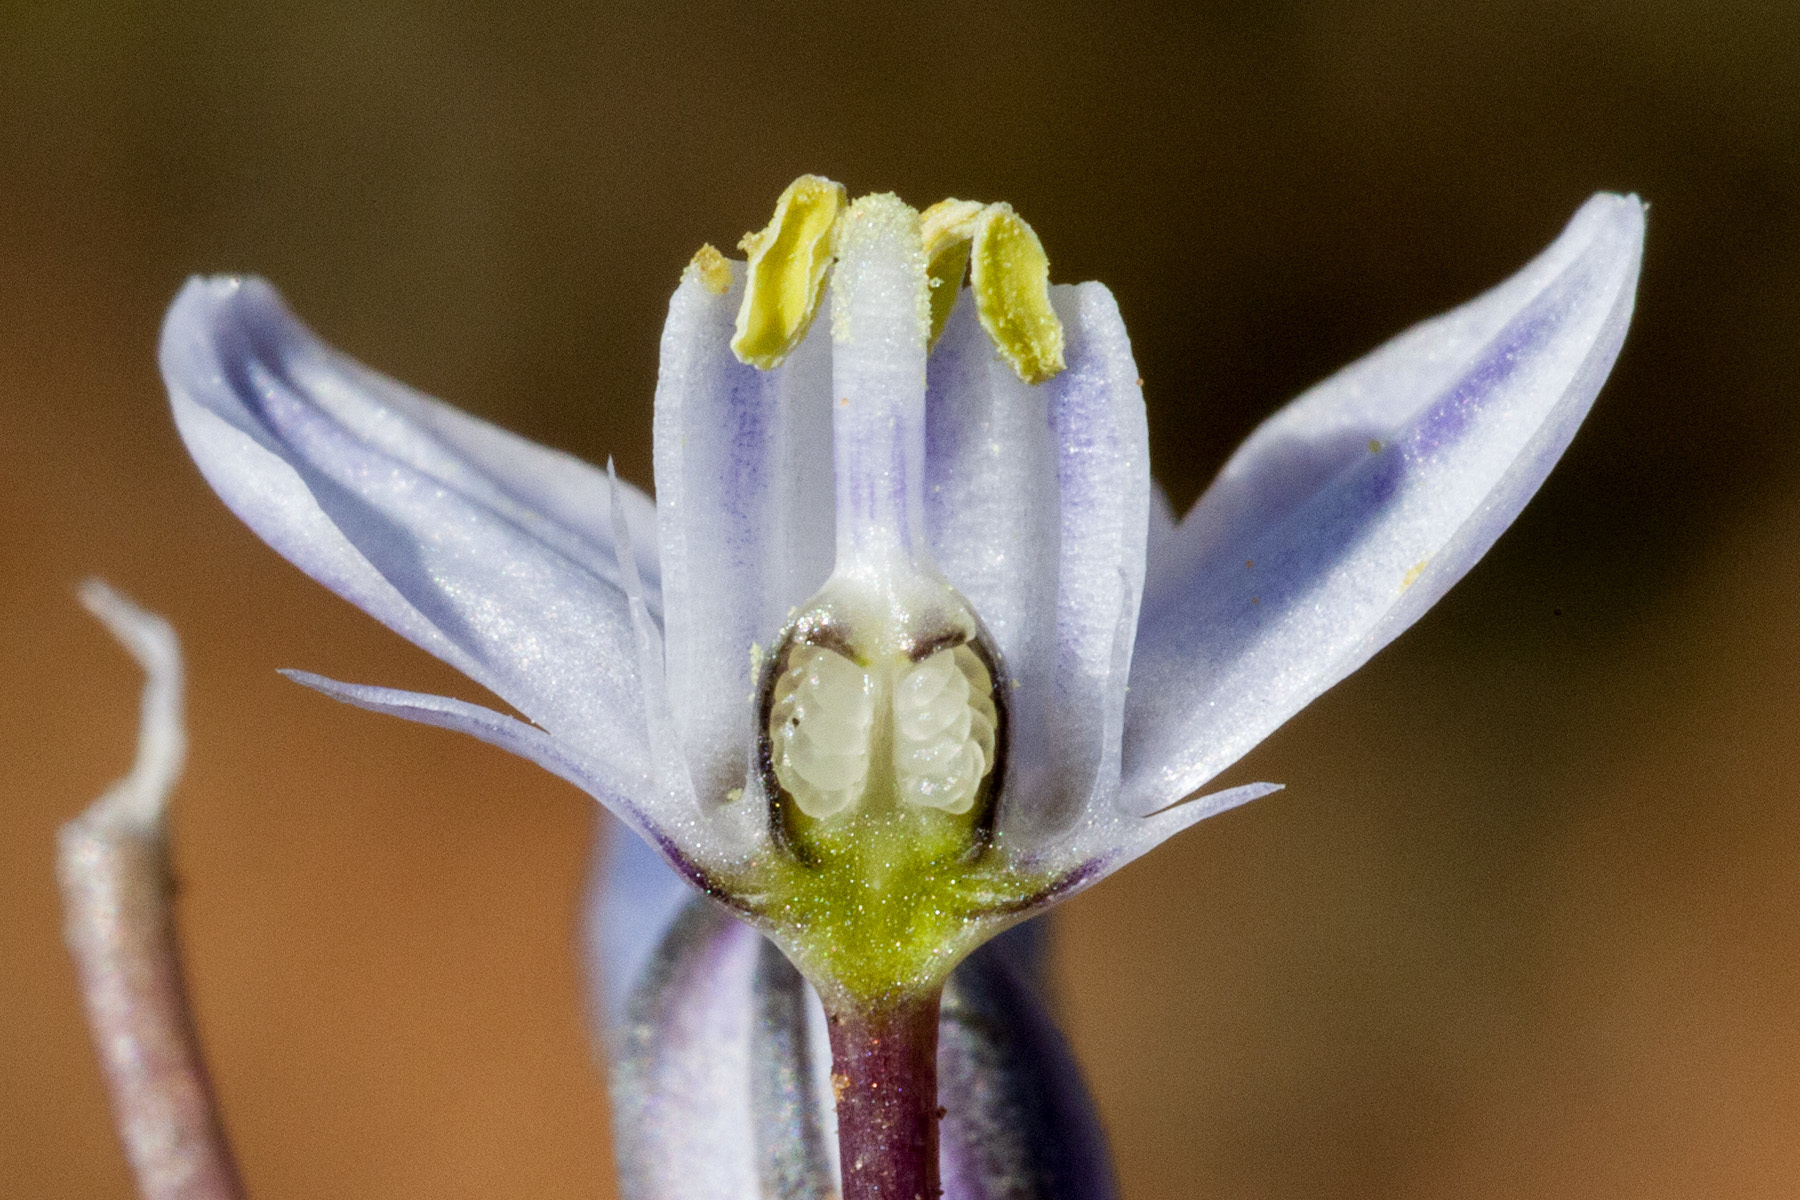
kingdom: Plantae
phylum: Tracheophyta
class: Liliopsida
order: Asparagales
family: Asparagaceae
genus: Muilla
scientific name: Muilla lordsburgana
